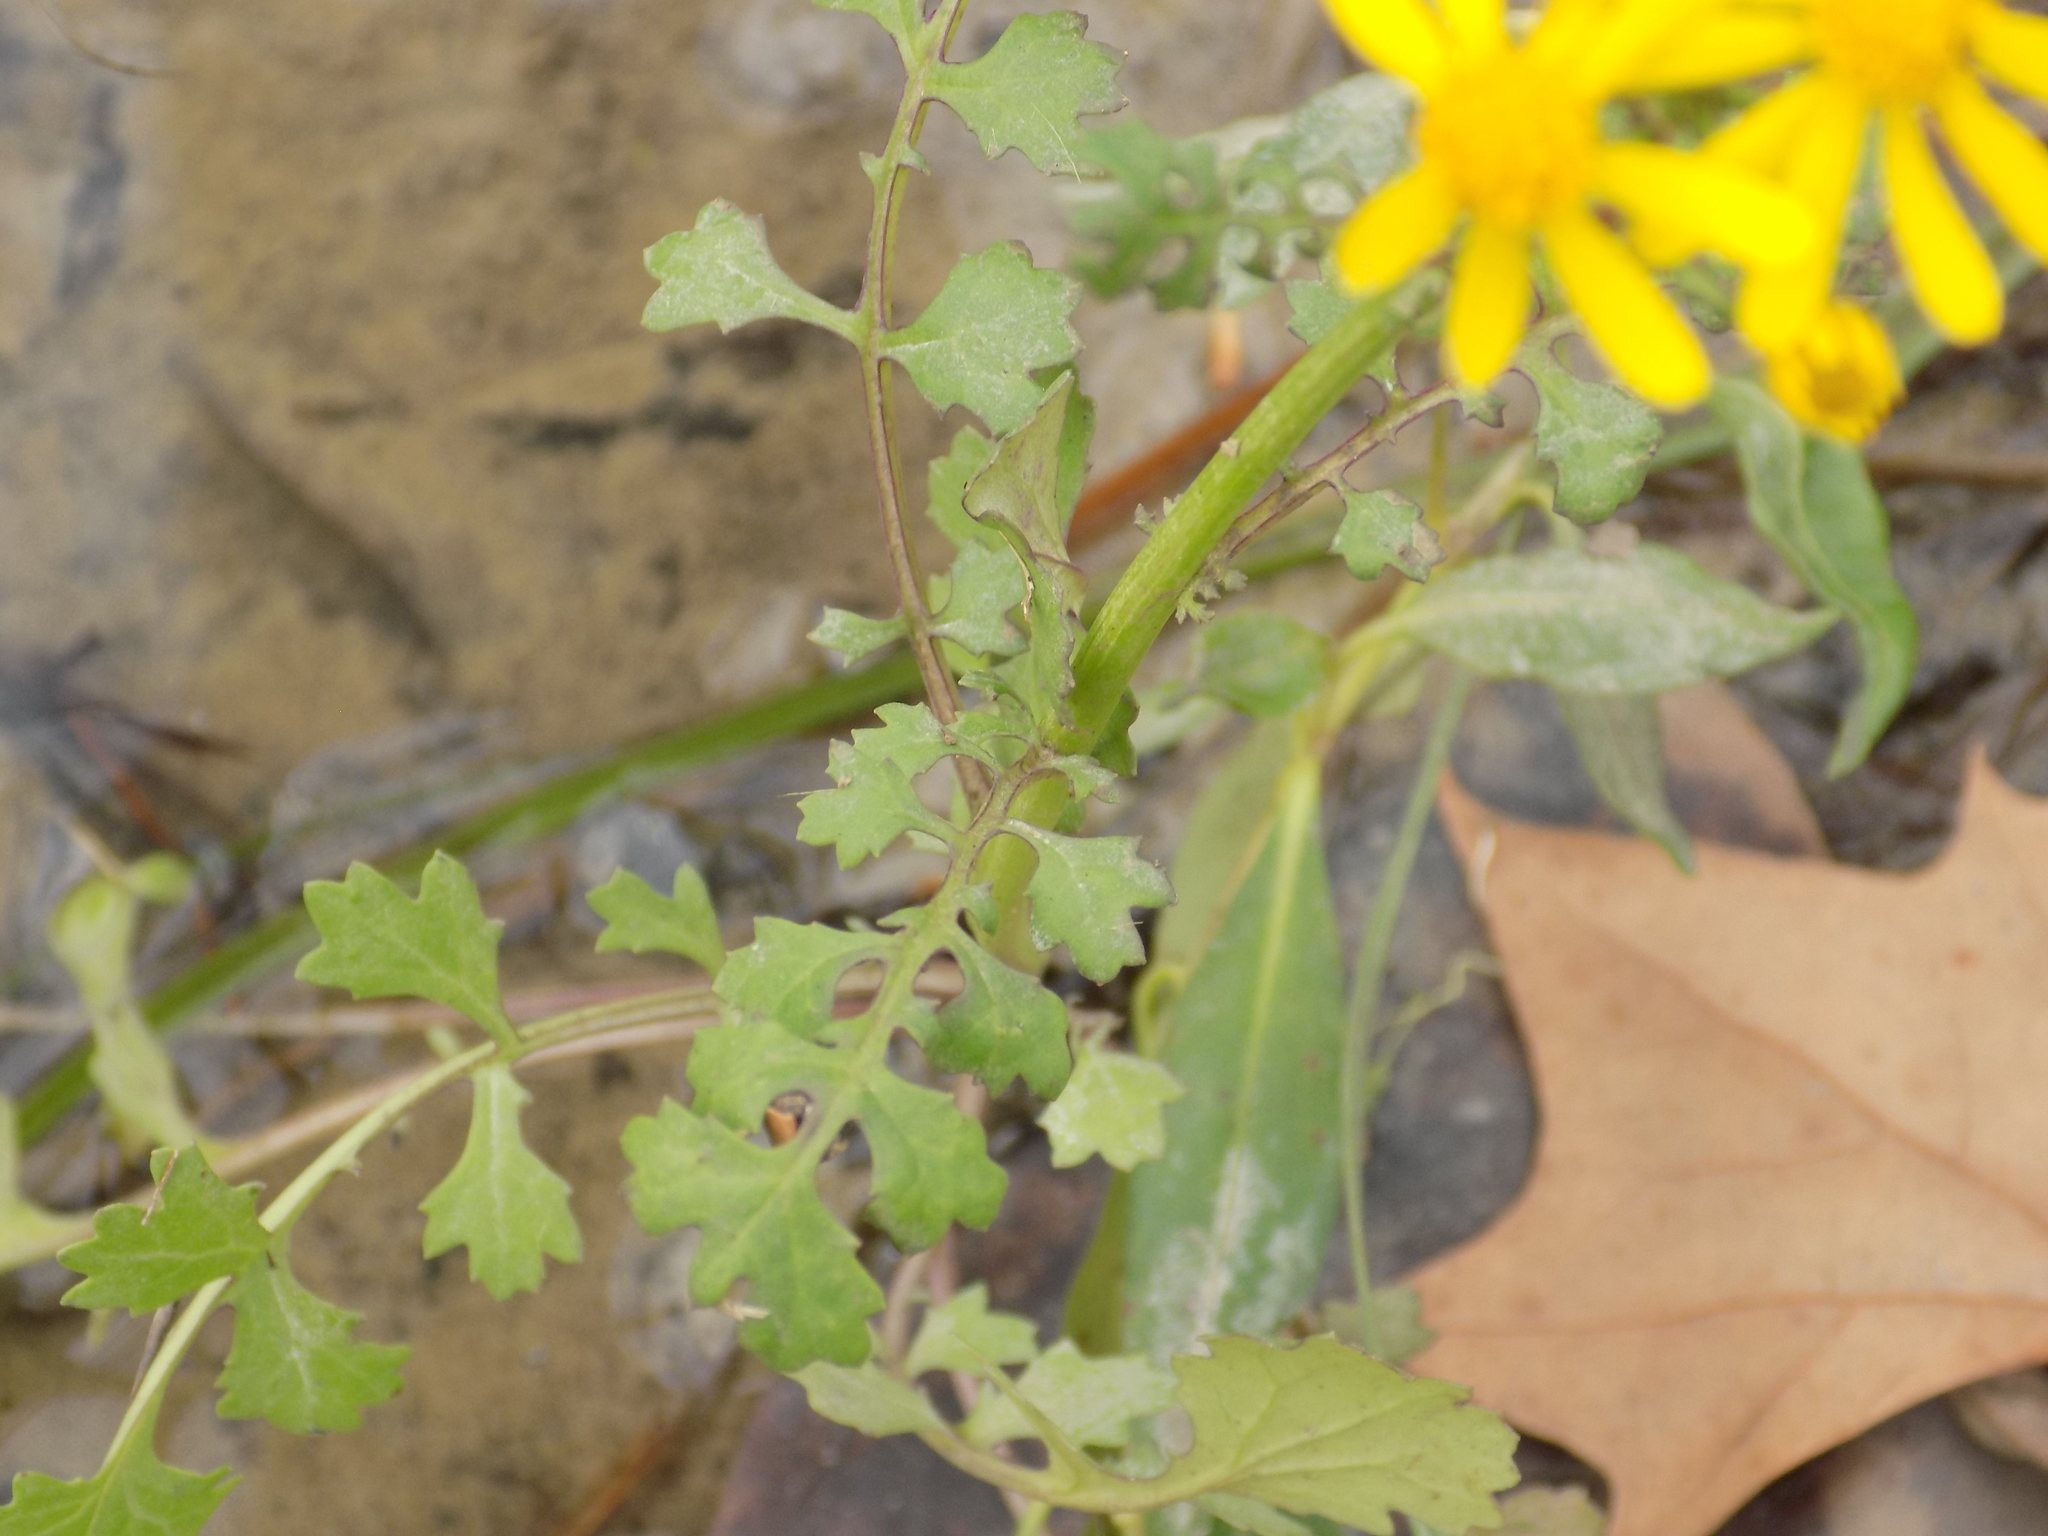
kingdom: Plantae
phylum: Tracheophyta
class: Magnoliopsida
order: Asterales
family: Asteraceae
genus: Packera
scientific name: Packera glabella
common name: Butterweed
